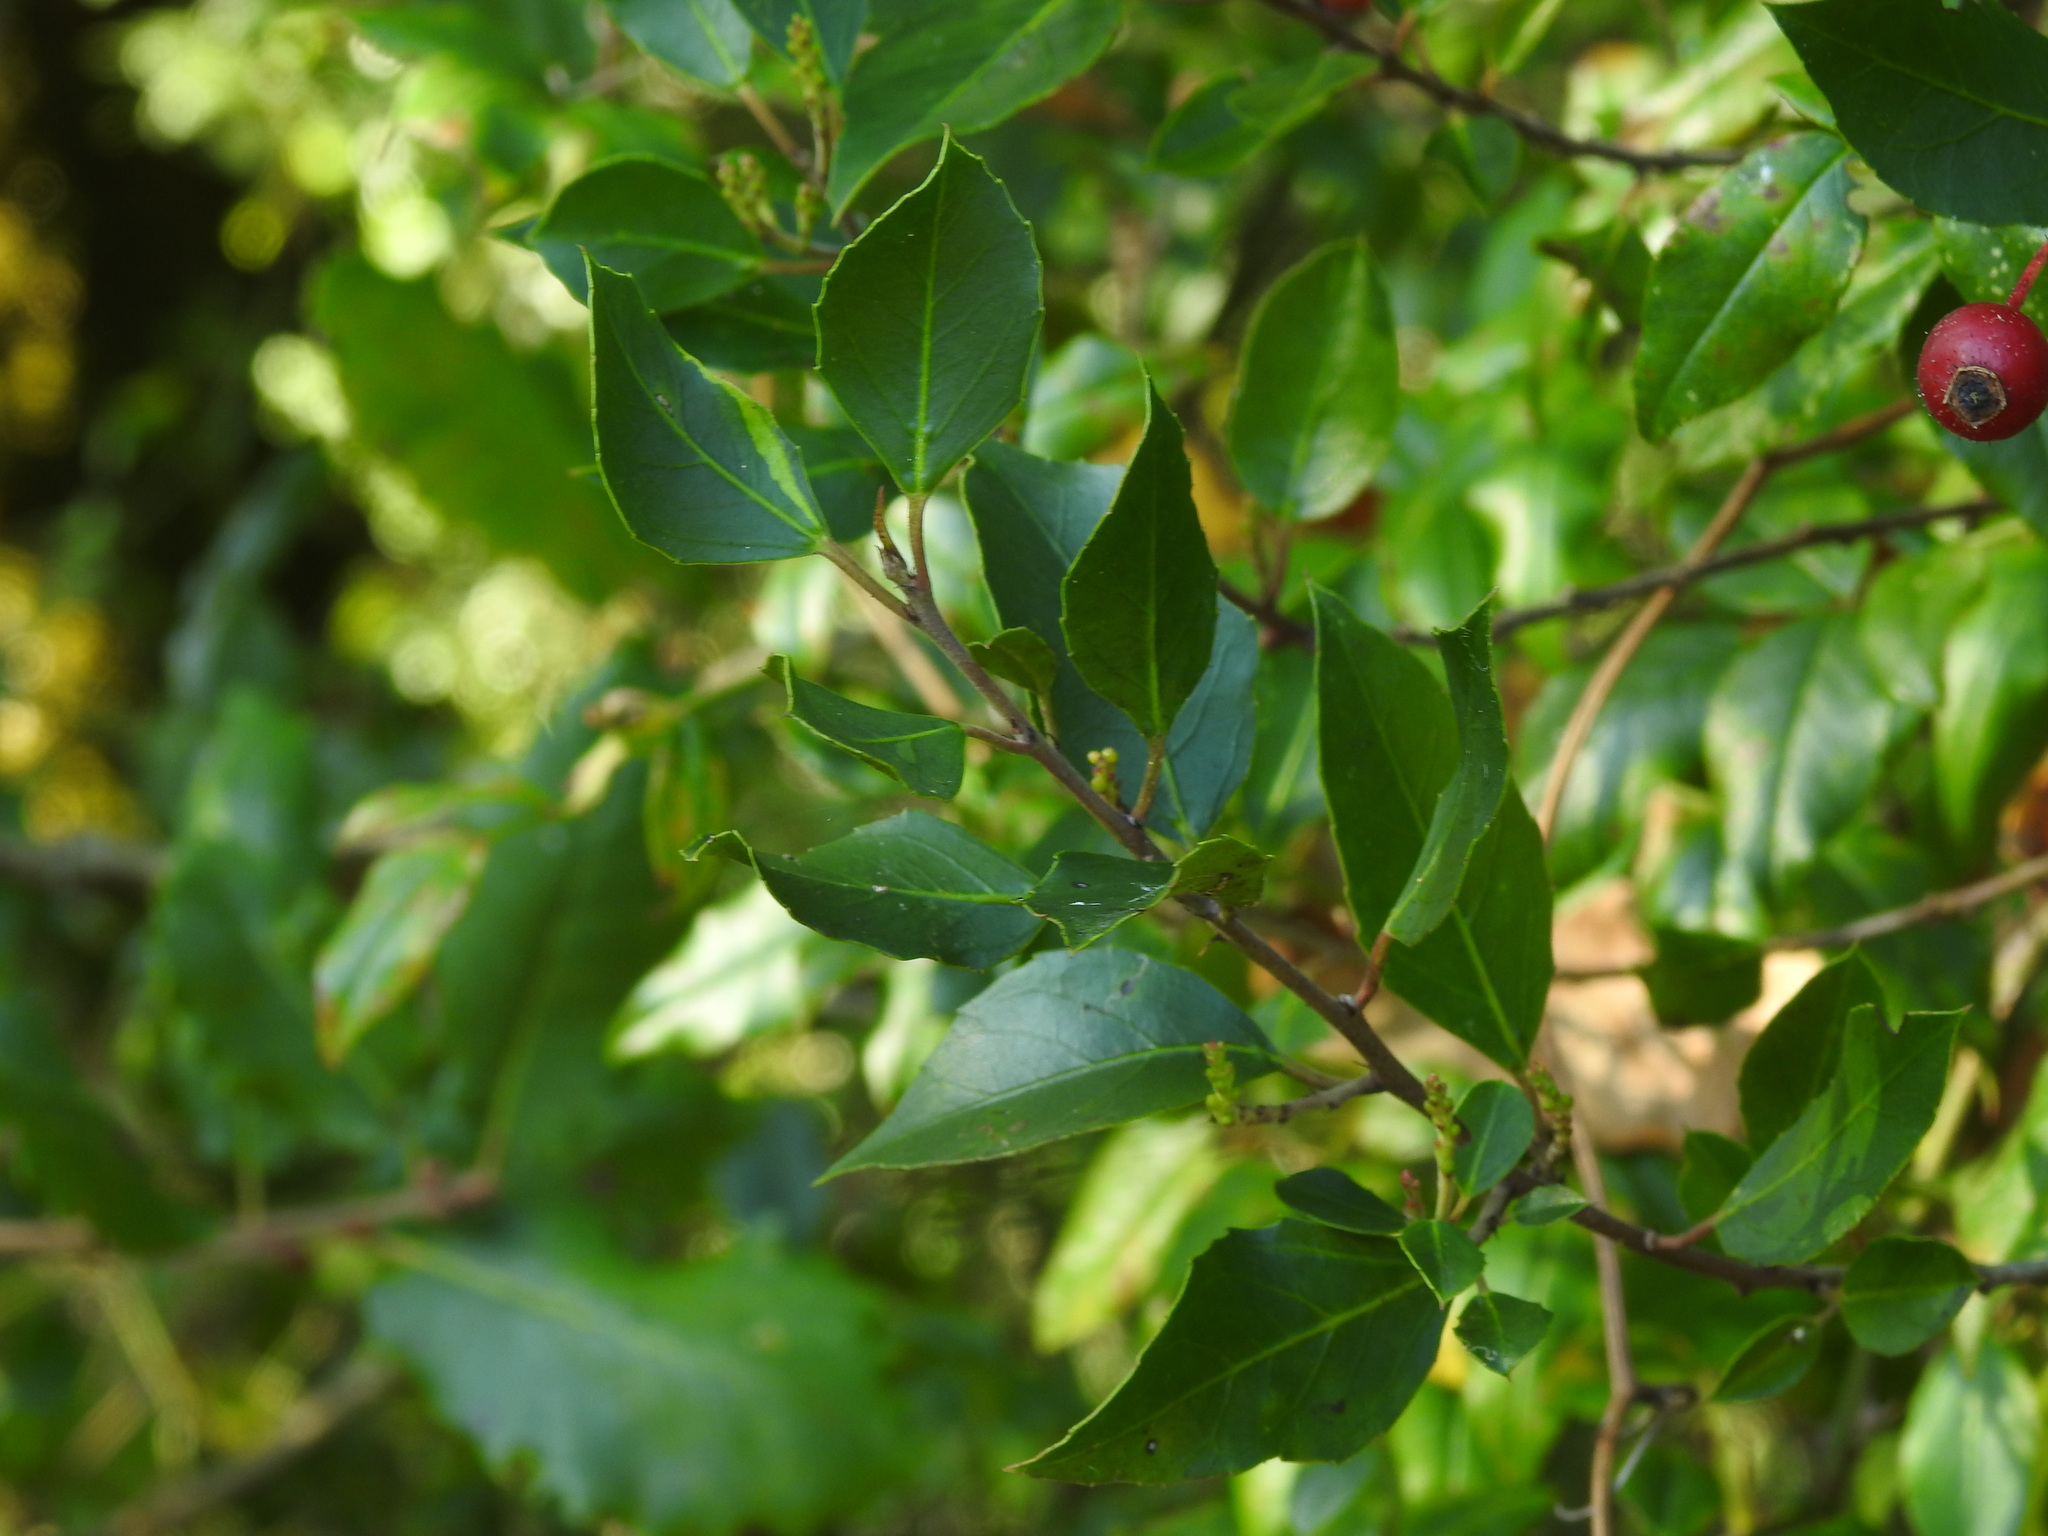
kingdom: Plantae
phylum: Tracheophyta
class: Magnoliopsida
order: Rosales
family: Rhamnaceae
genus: Rhamnus
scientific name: Rhamnus alaternus
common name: Mediterranean buckthorn
